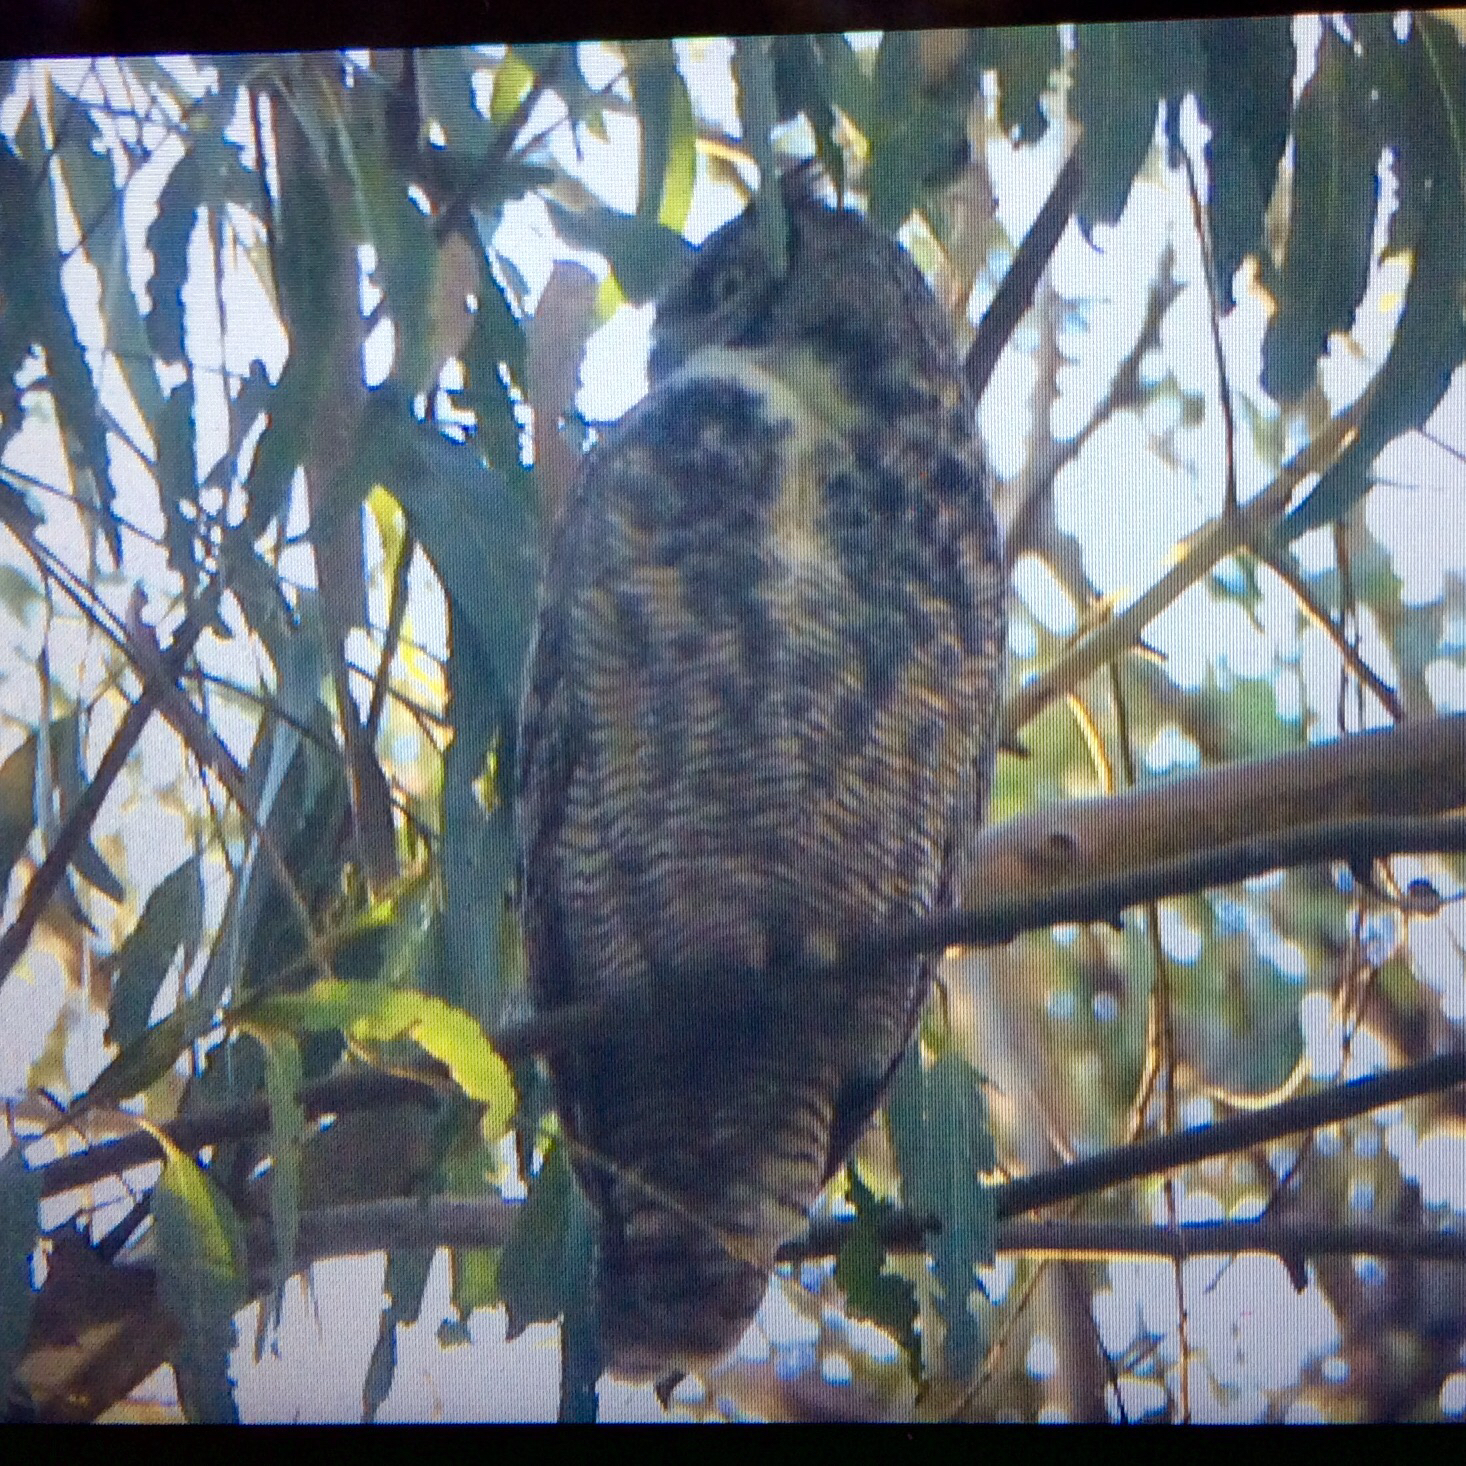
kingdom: Animalia
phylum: Chordata
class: Aves
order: Strigiformes
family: Strigidae
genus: Bubo
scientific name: Bubo virginianus
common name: Great horned owl
